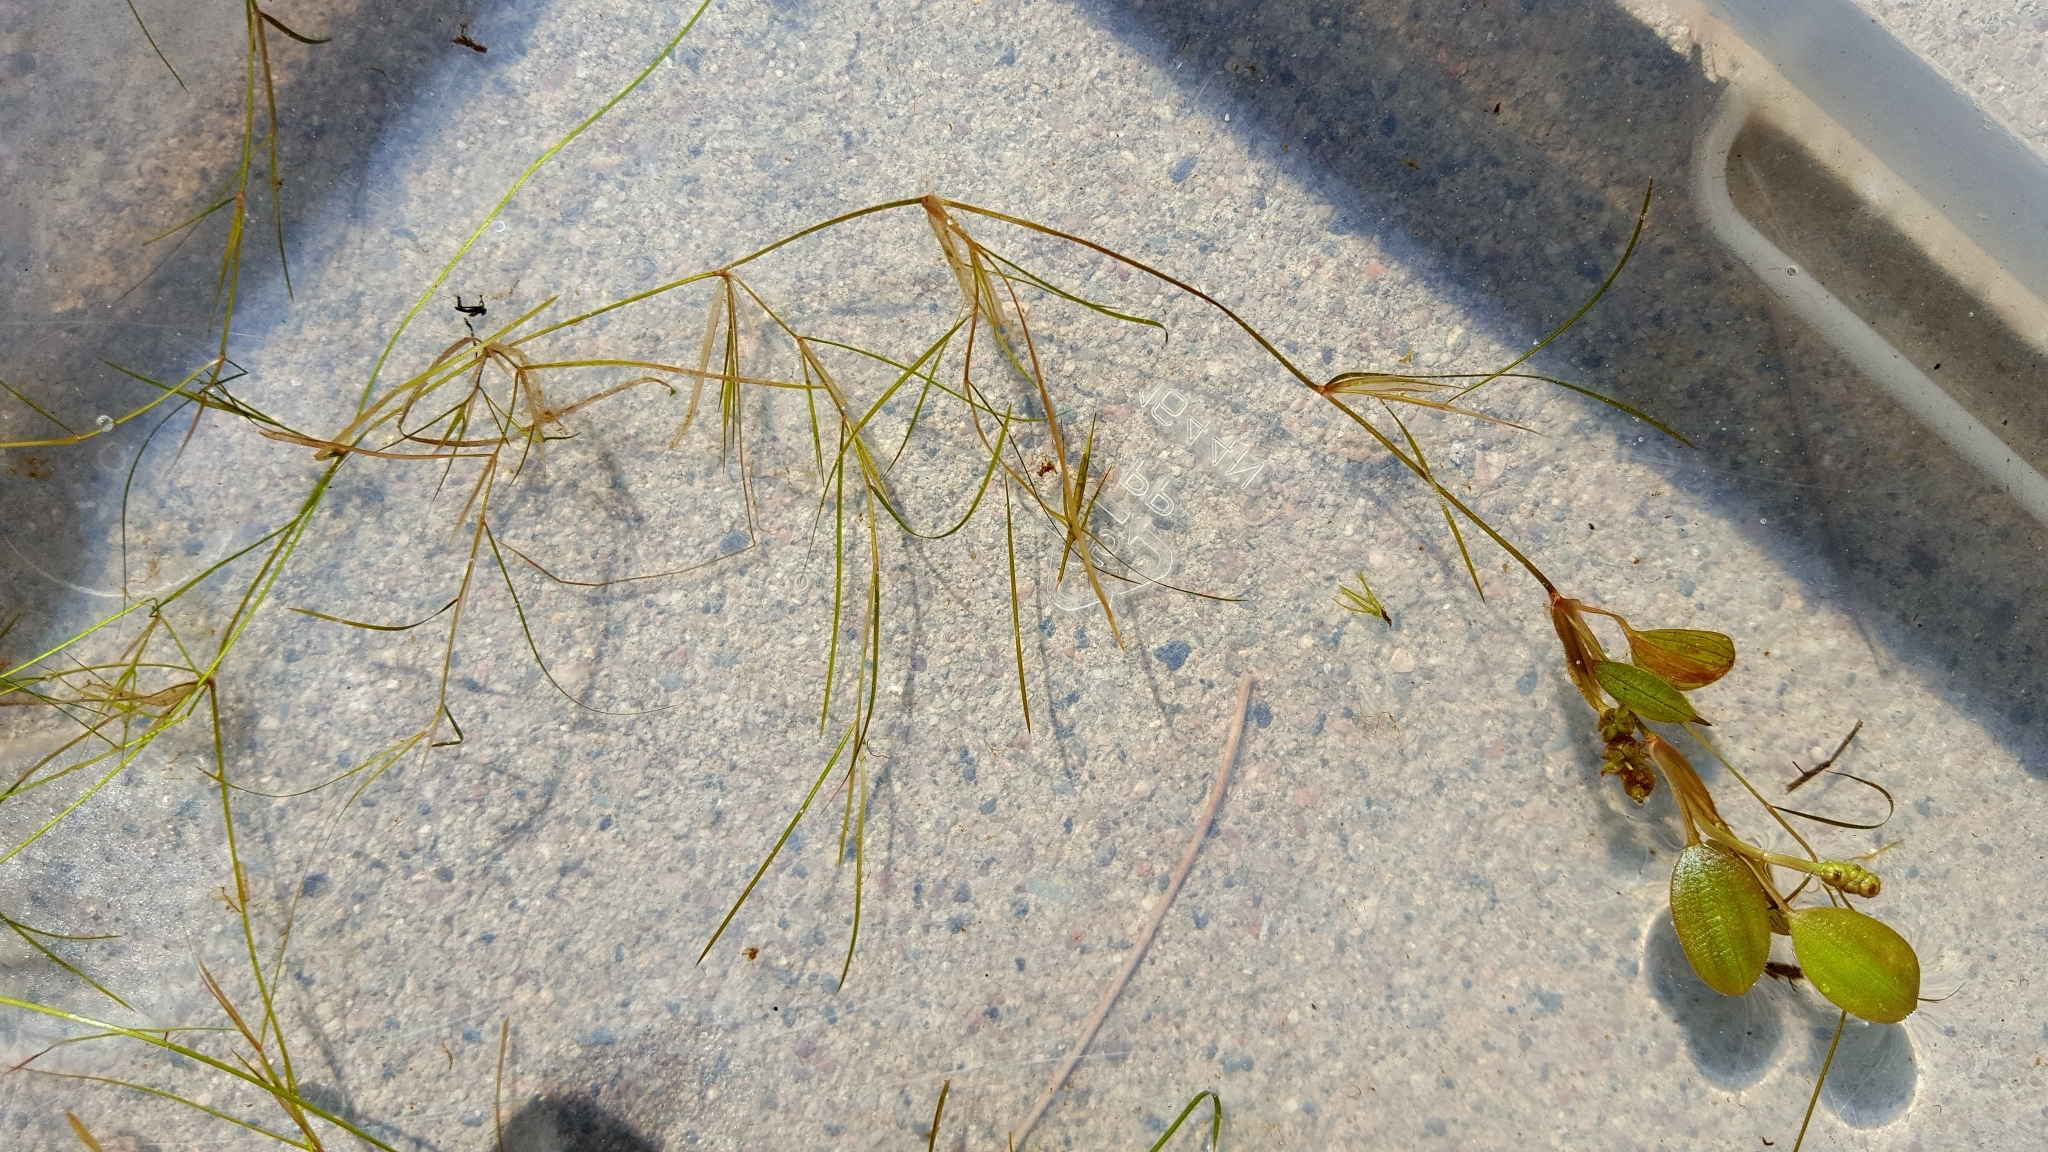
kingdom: Plantae
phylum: Tracheophyta
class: Liliopsida
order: Alismatales
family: Potamogetonaceae
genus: Potamogeton
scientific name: Potamogeton vaseyi
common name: Vasey's pondweed
